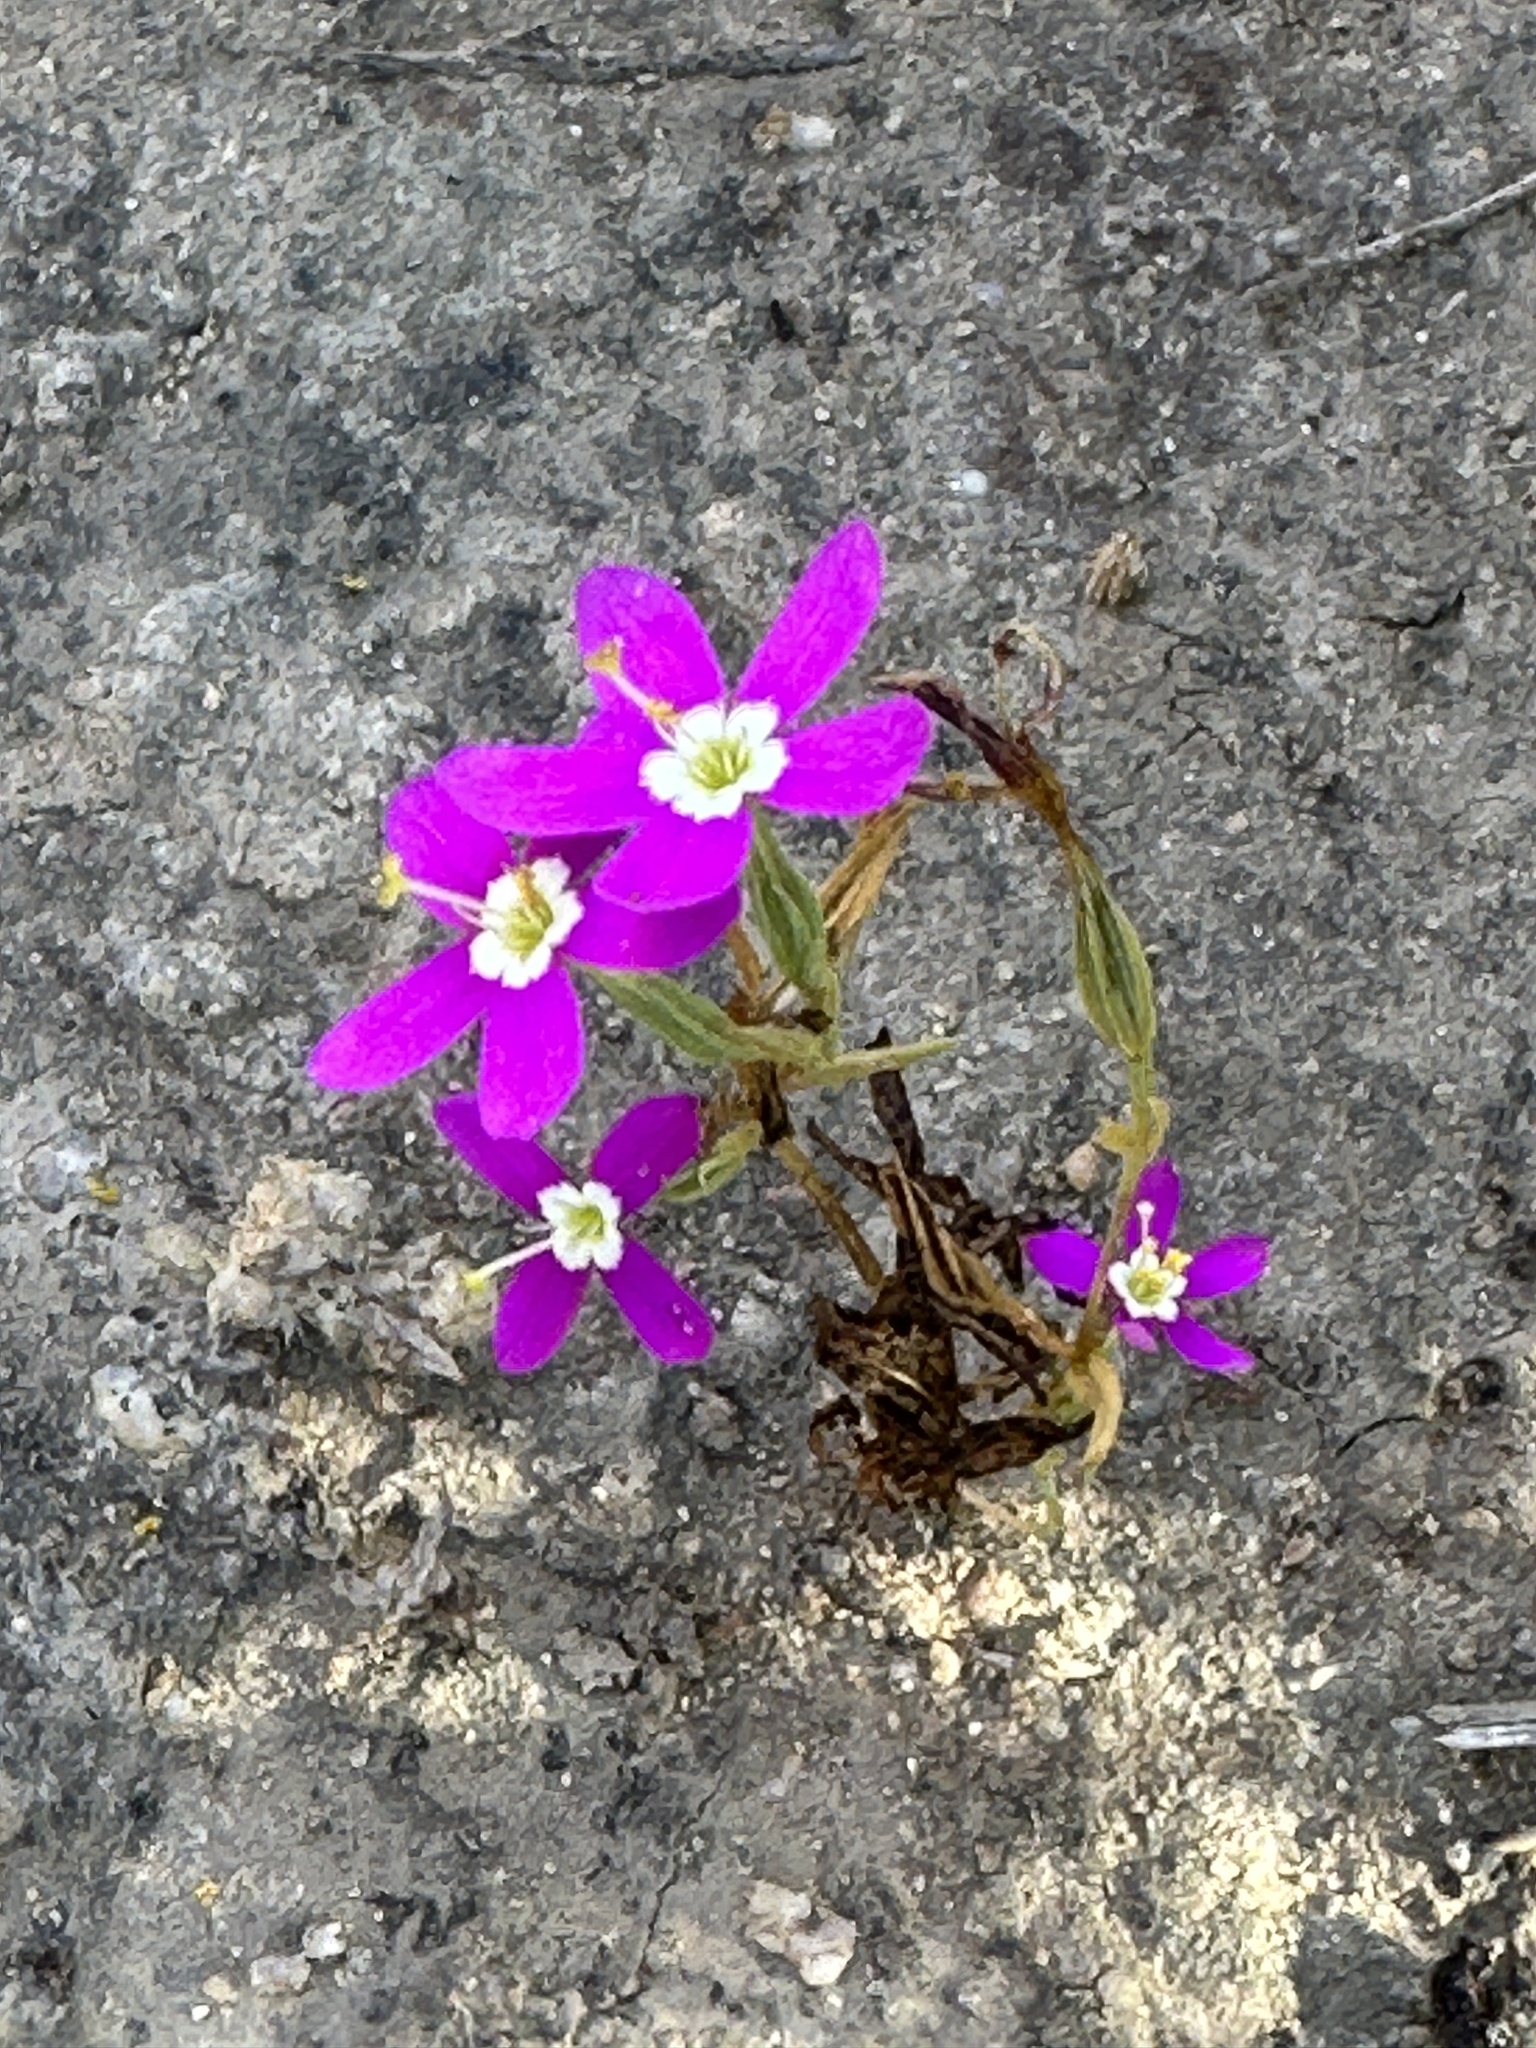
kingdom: Plantae
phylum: Tracheophyta
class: Magnoliopsida
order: Gentianales
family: Gentianaceae
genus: Zeltnera
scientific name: Zeltnera venusta
